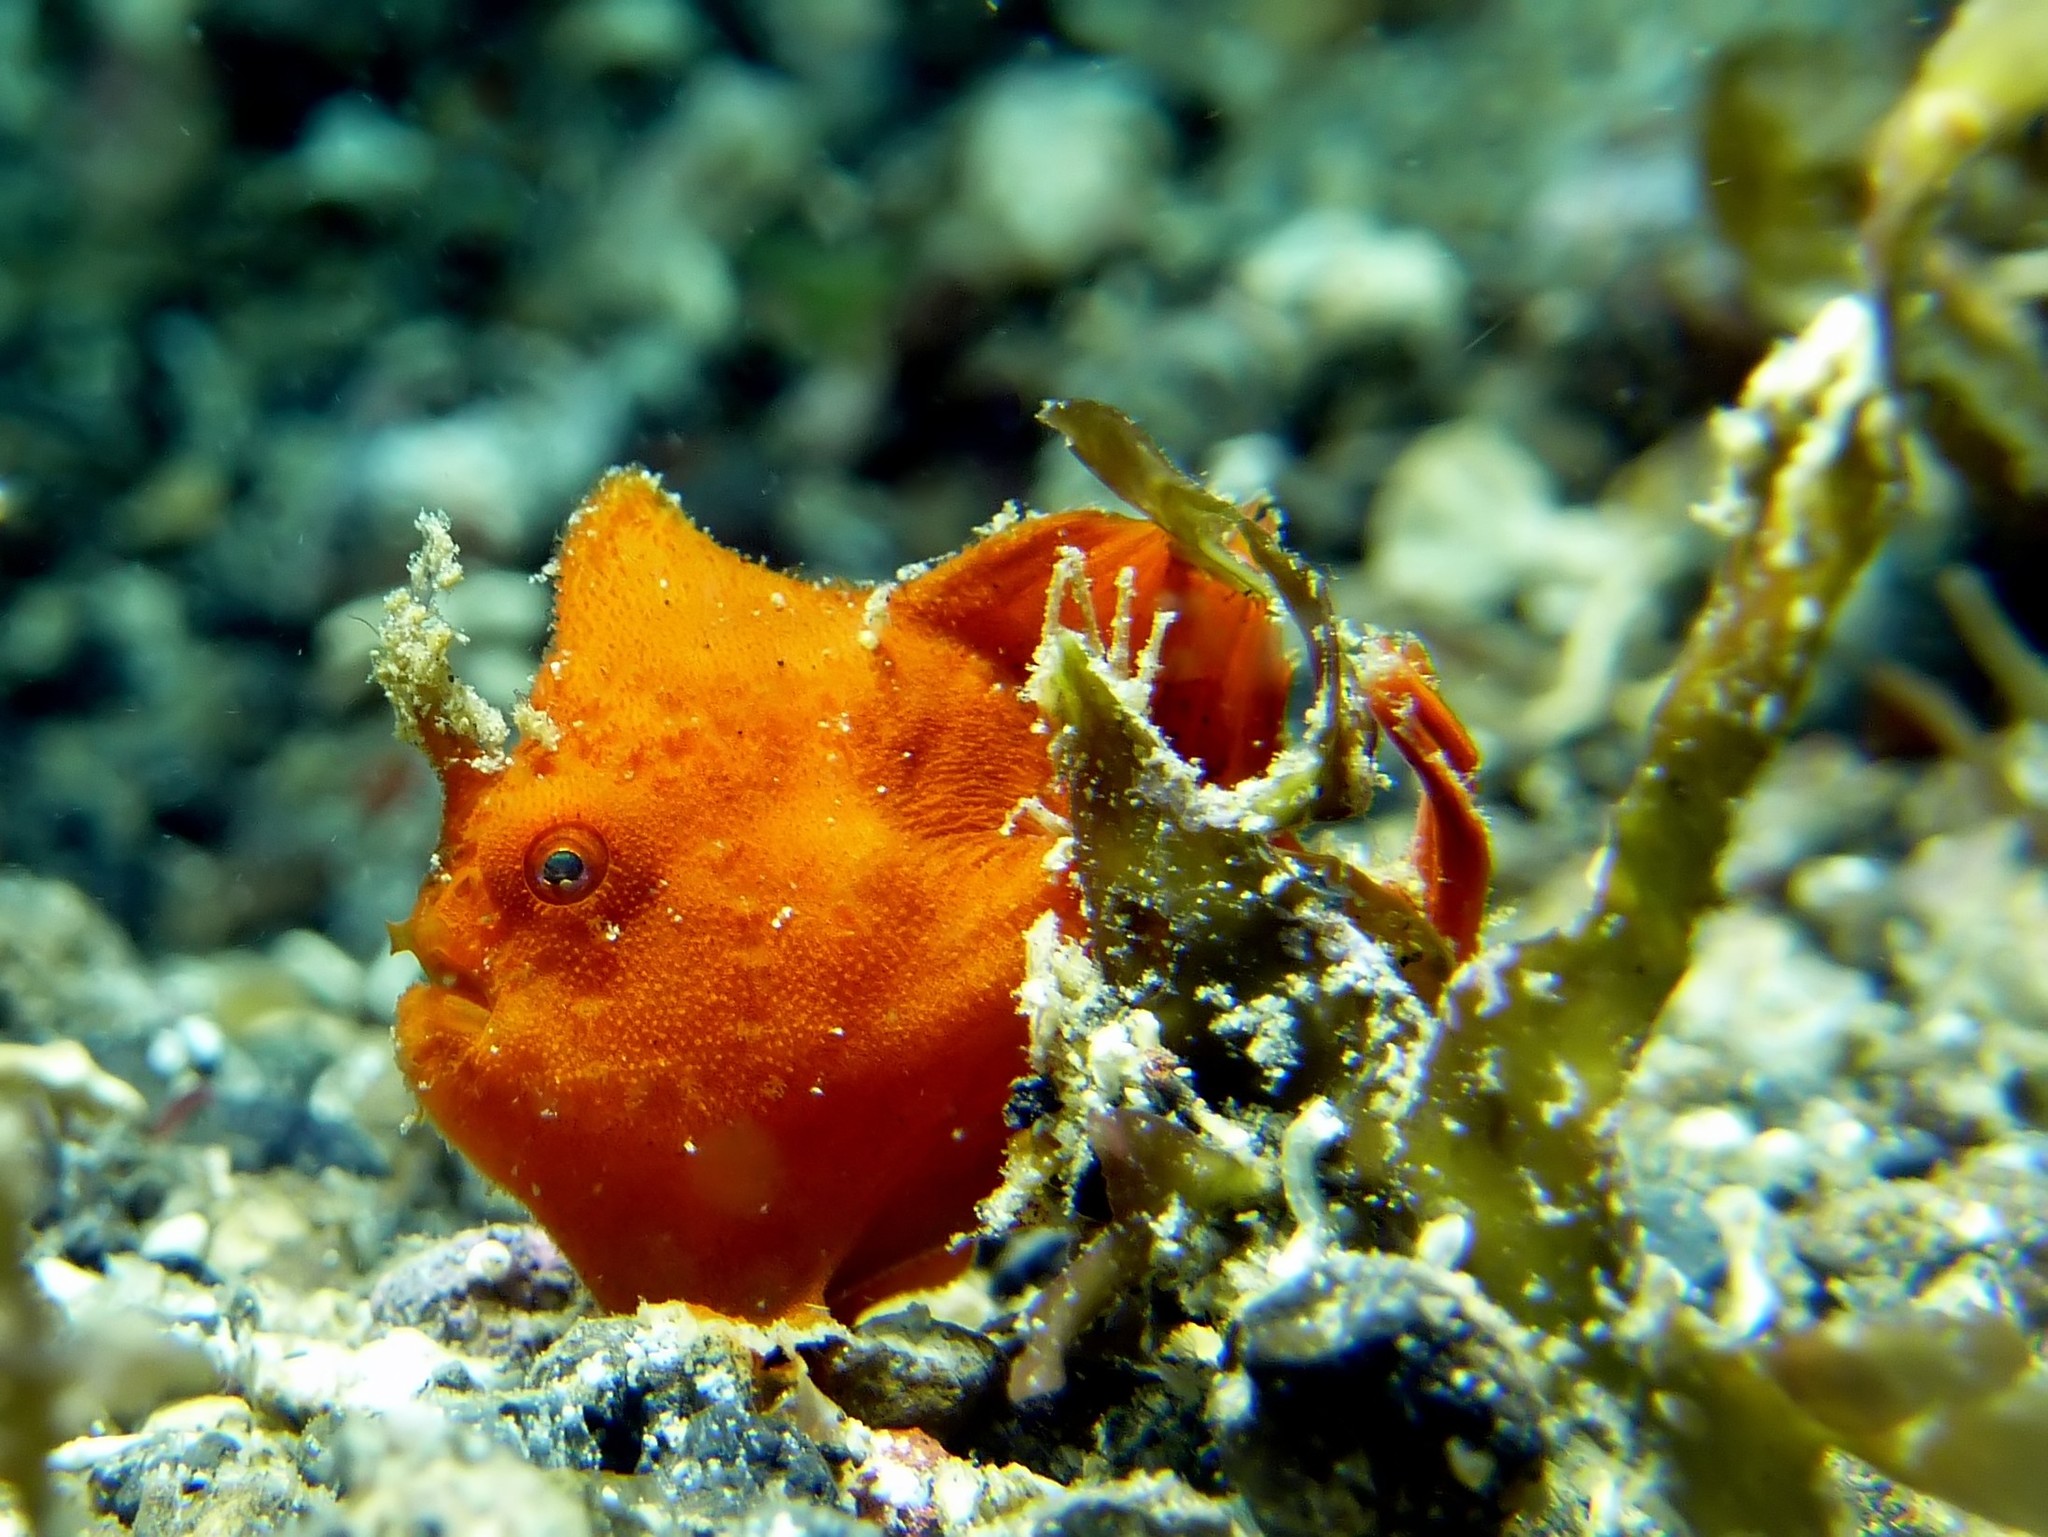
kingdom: Animalia
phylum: Chordata
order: Lophiiformes
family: Antennariidae
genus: Antennarius
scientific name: Antennarius pictus
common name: Painted frogfish
